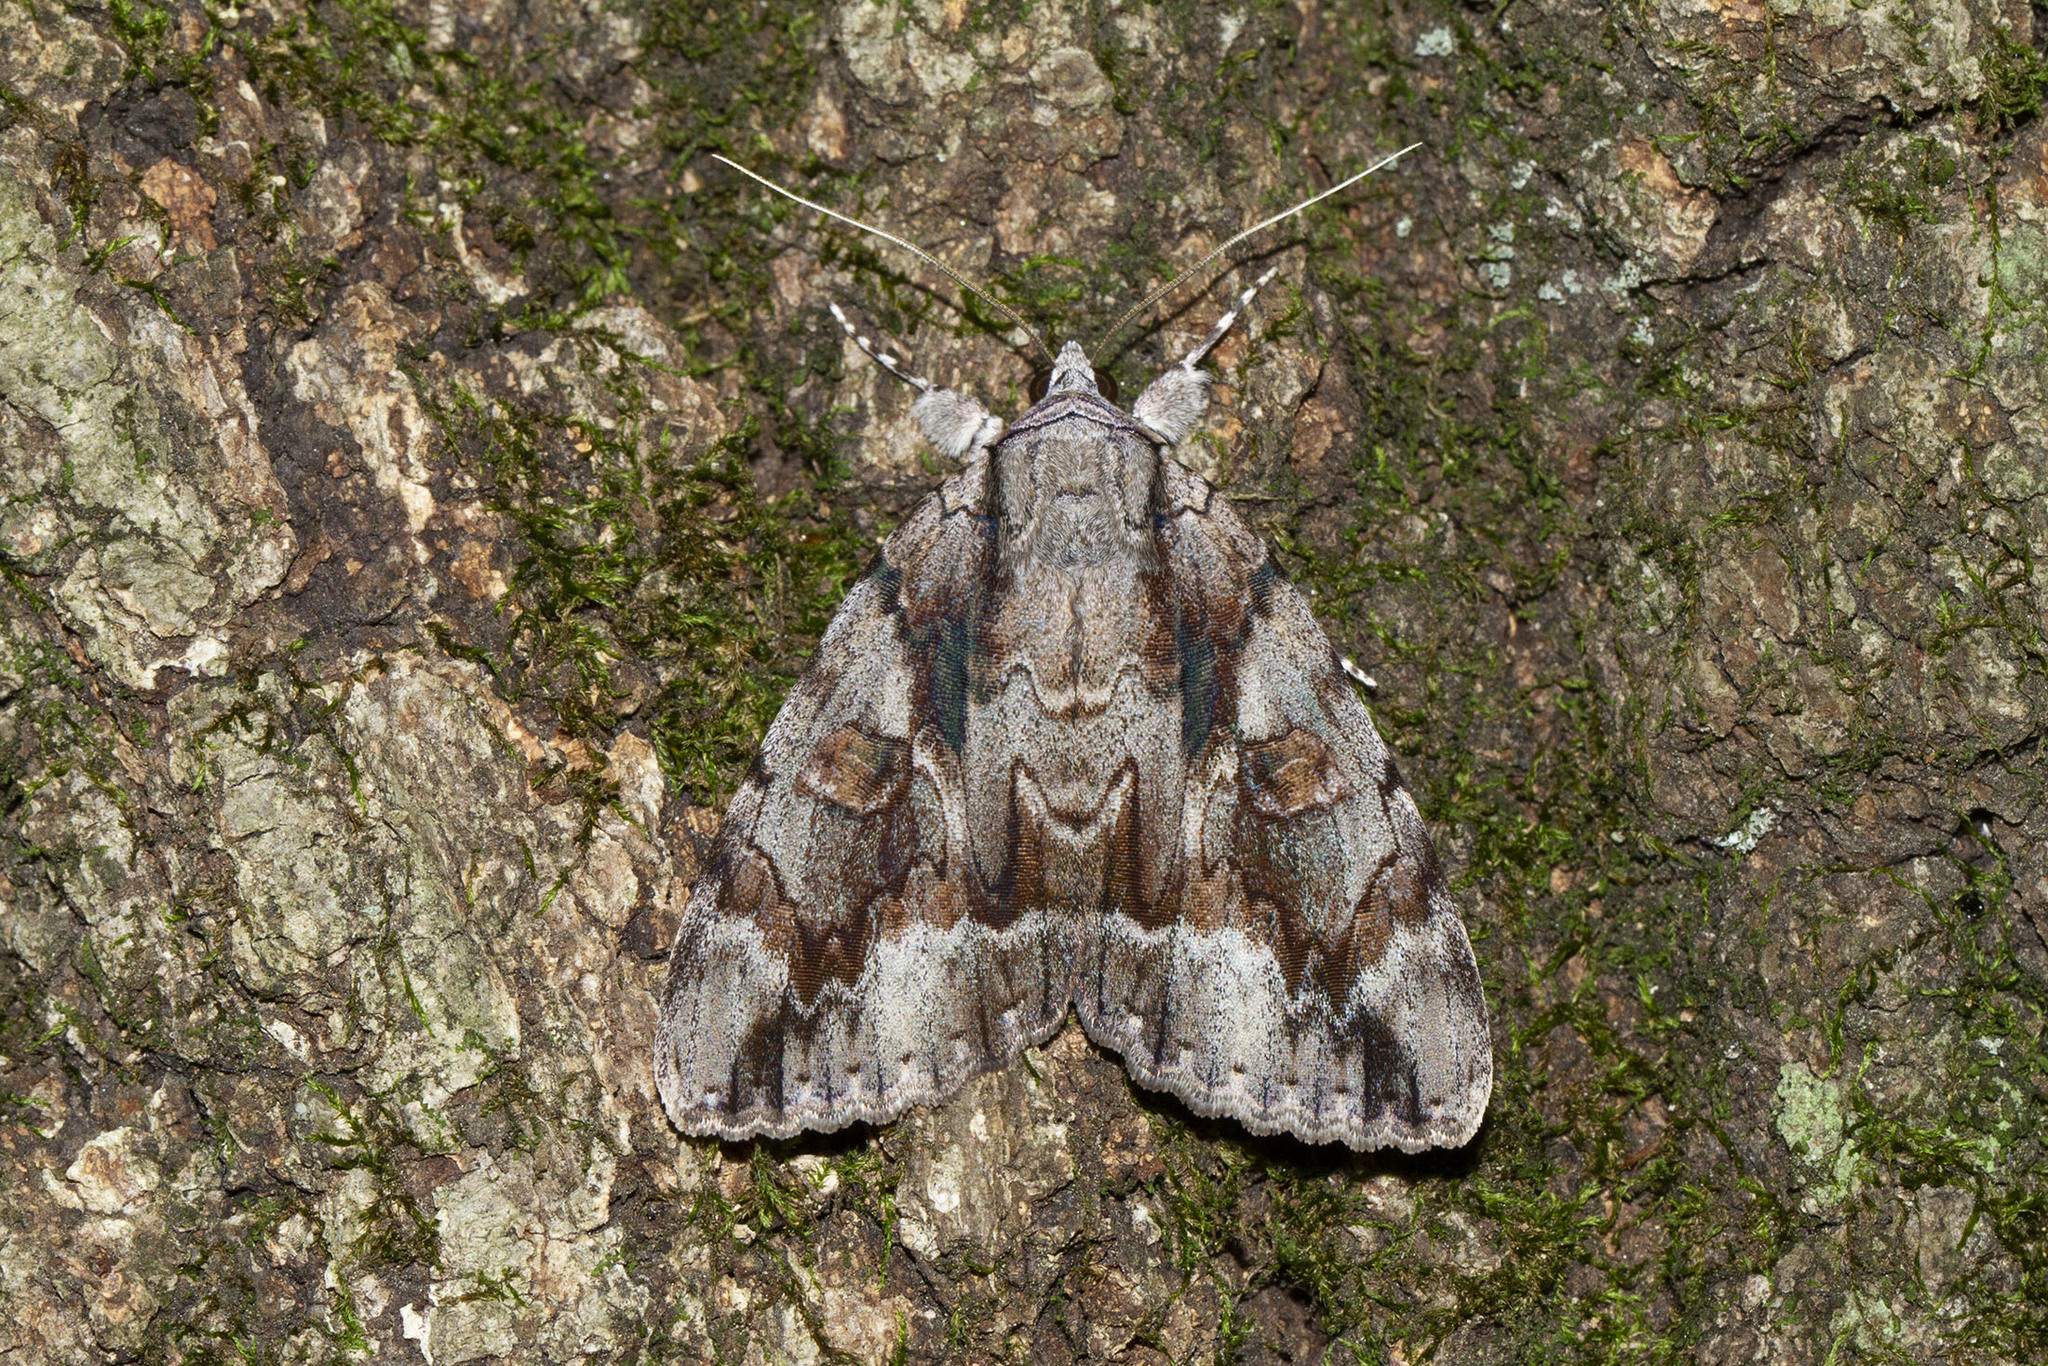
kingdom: Animalia
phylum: Arthropoda
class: Insecta
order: Lepidoptera
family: Erebidae
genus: Catocala
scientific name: Catocala flebilis
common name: Mournful underwing
